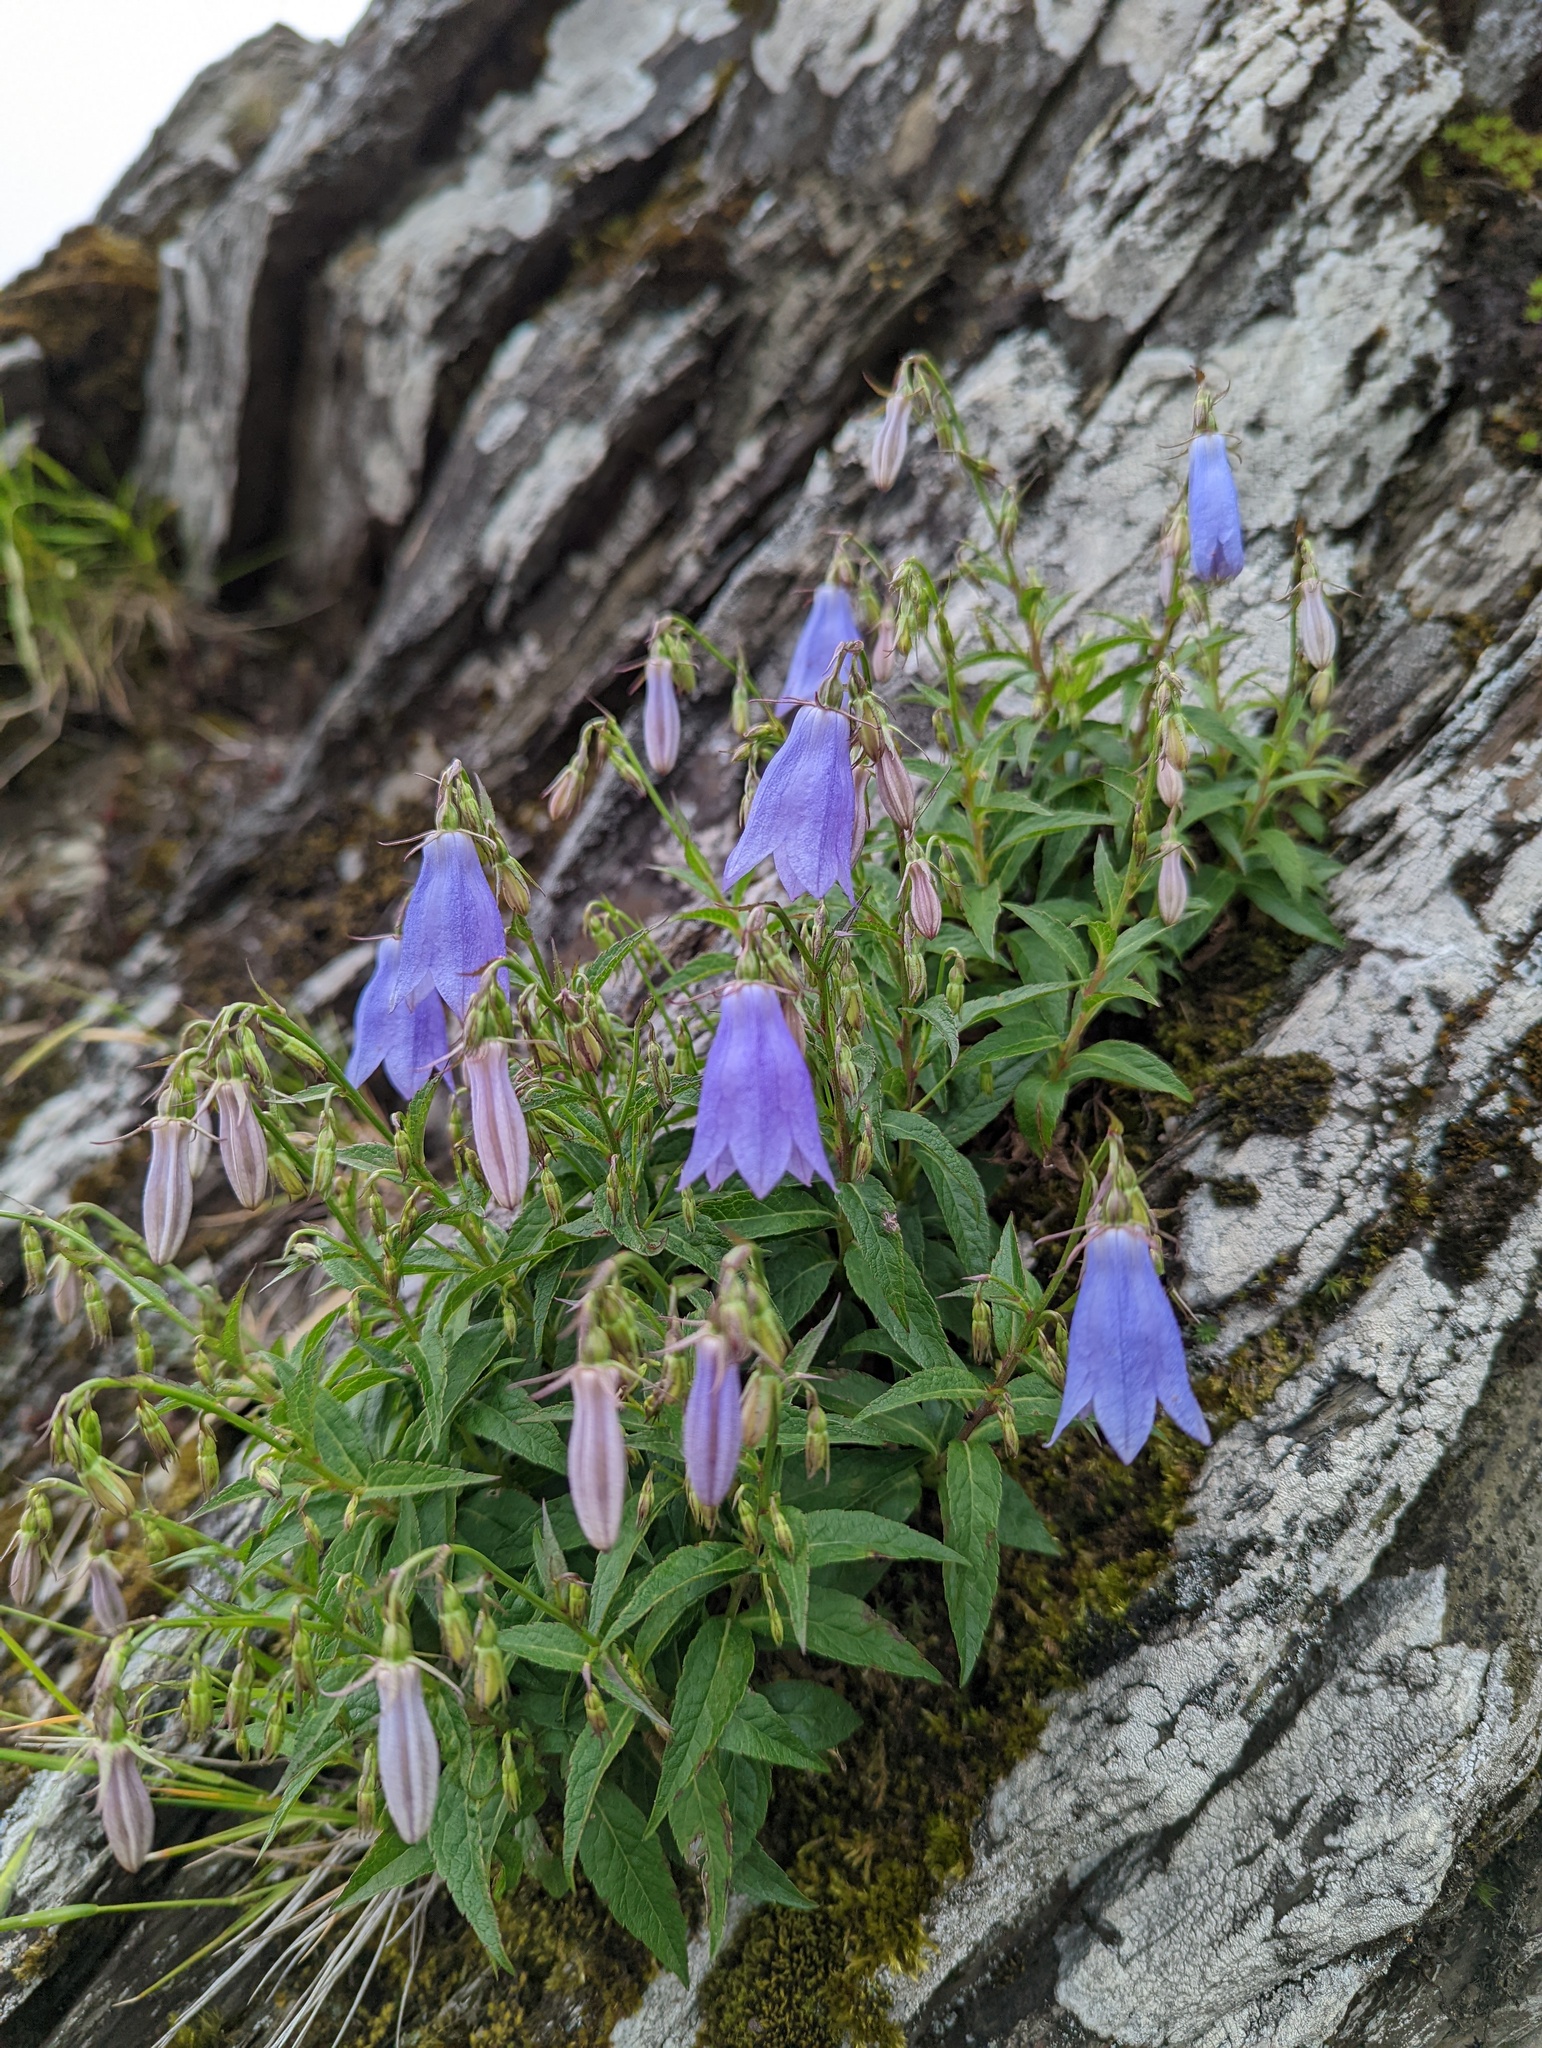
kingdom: Plantae
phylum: Tracheophyta
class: Magnoliopsida
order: Asterales
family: Campanulaceae
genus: Adenophora
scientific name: Adenophora morrisonensis
